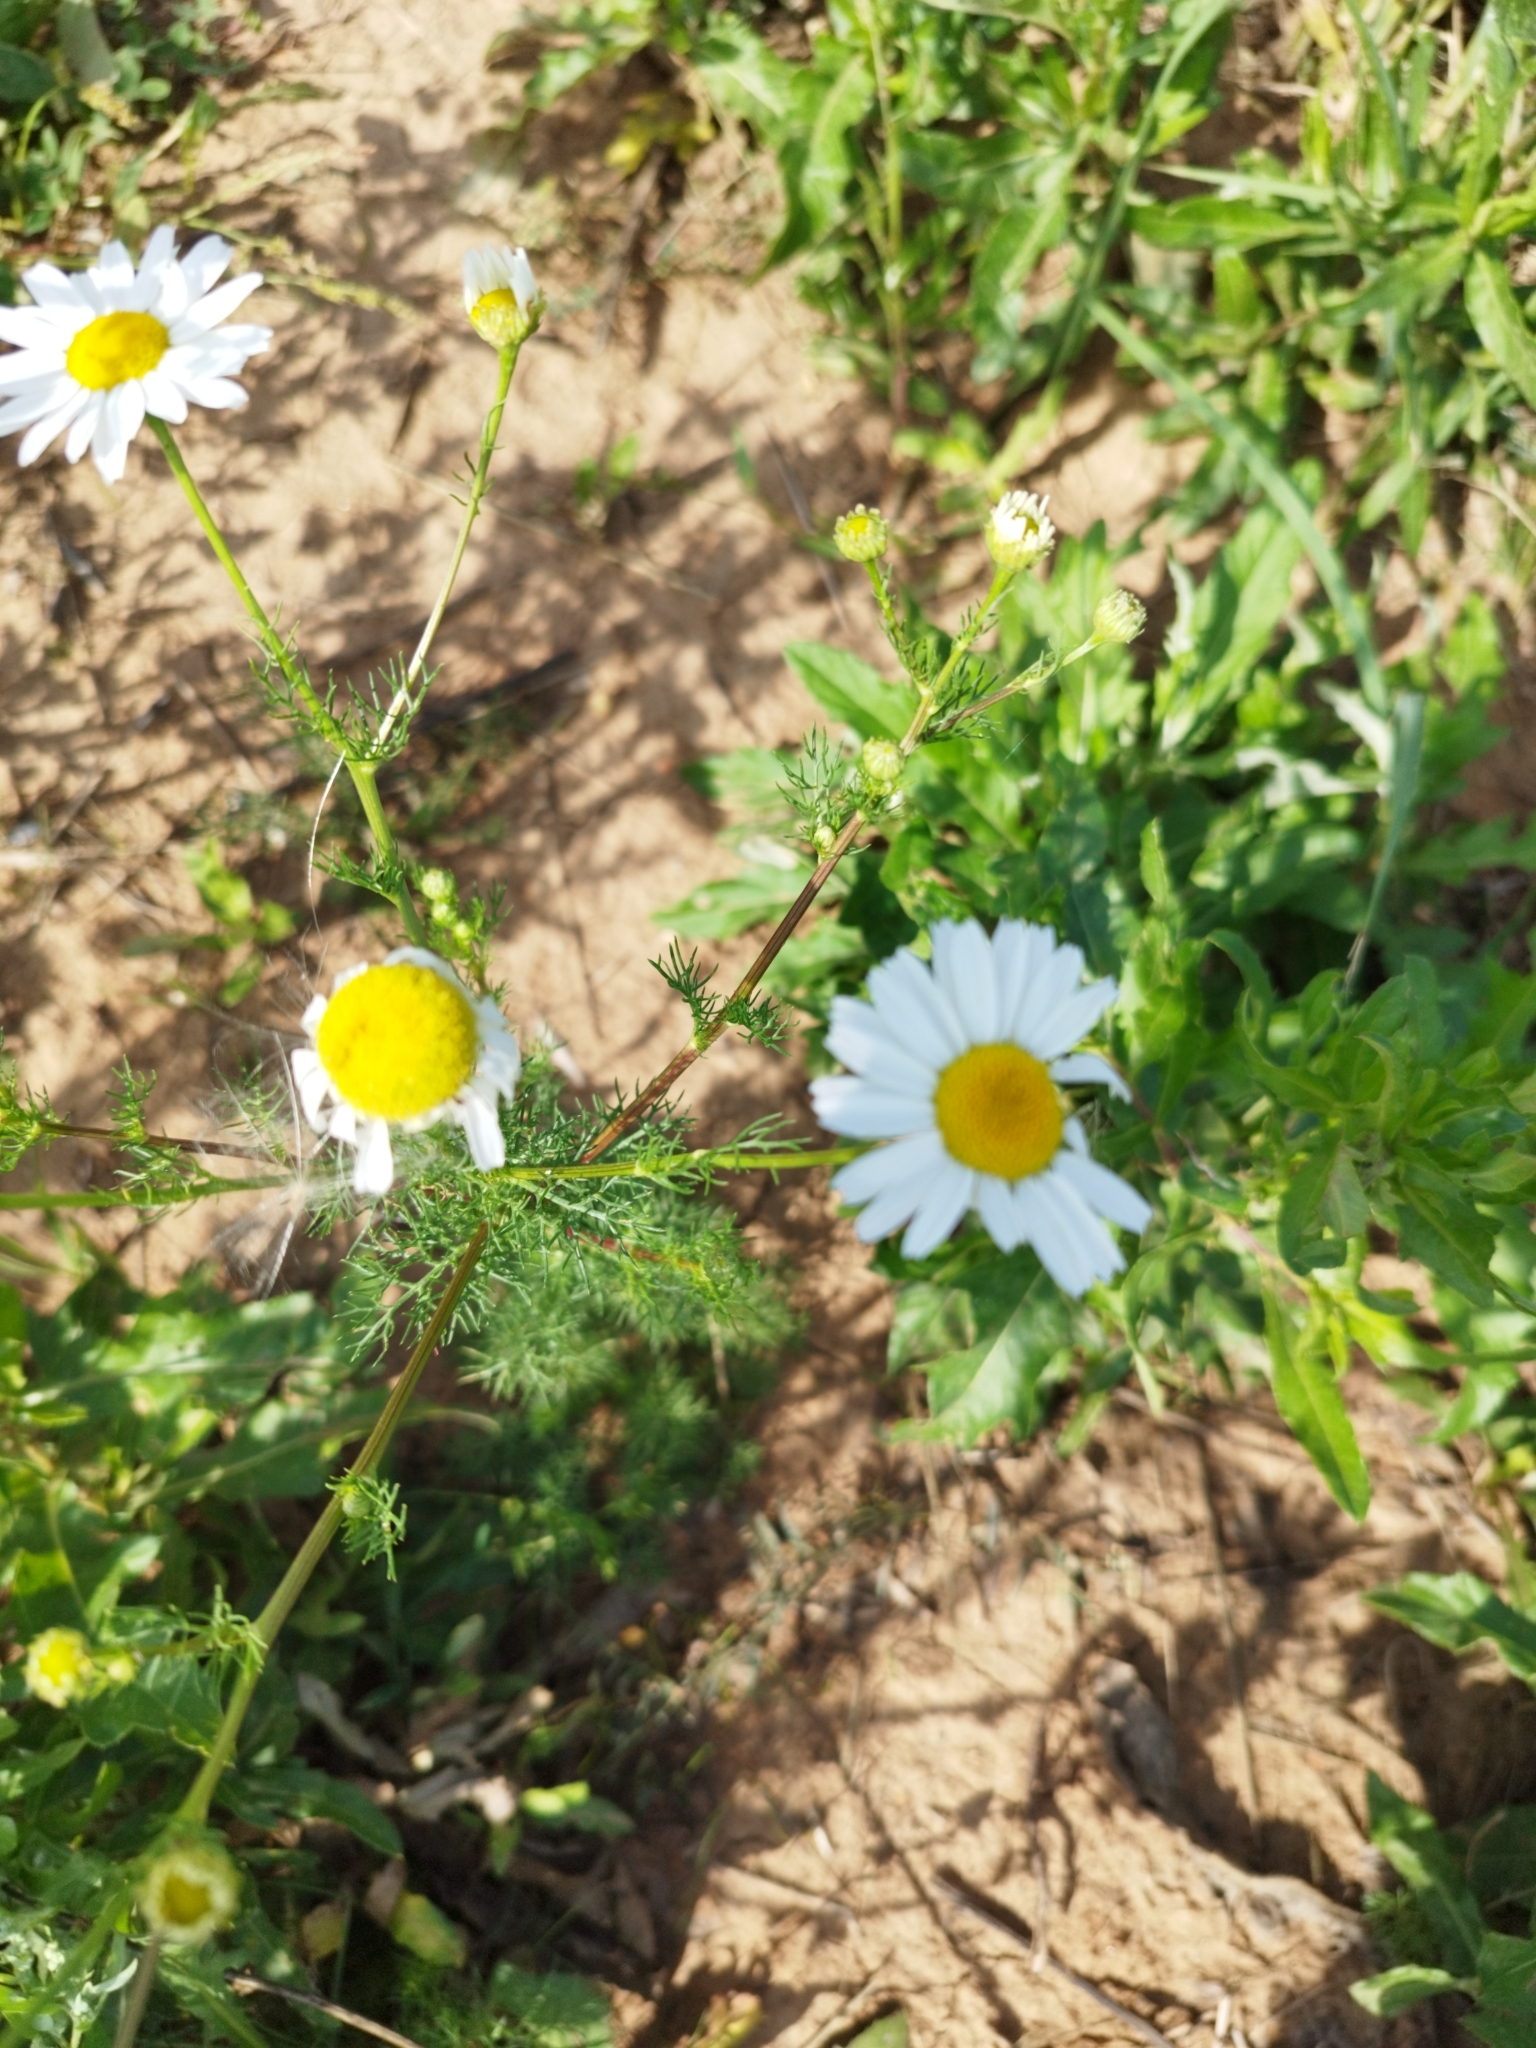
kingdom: Plantae
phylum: Tracheophyta
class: Magnoliopsida
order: Asterales
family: Asteraceae
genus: Tripleurospermum
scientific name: Tripleurospermum inodorum
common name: Scentless mayweed
